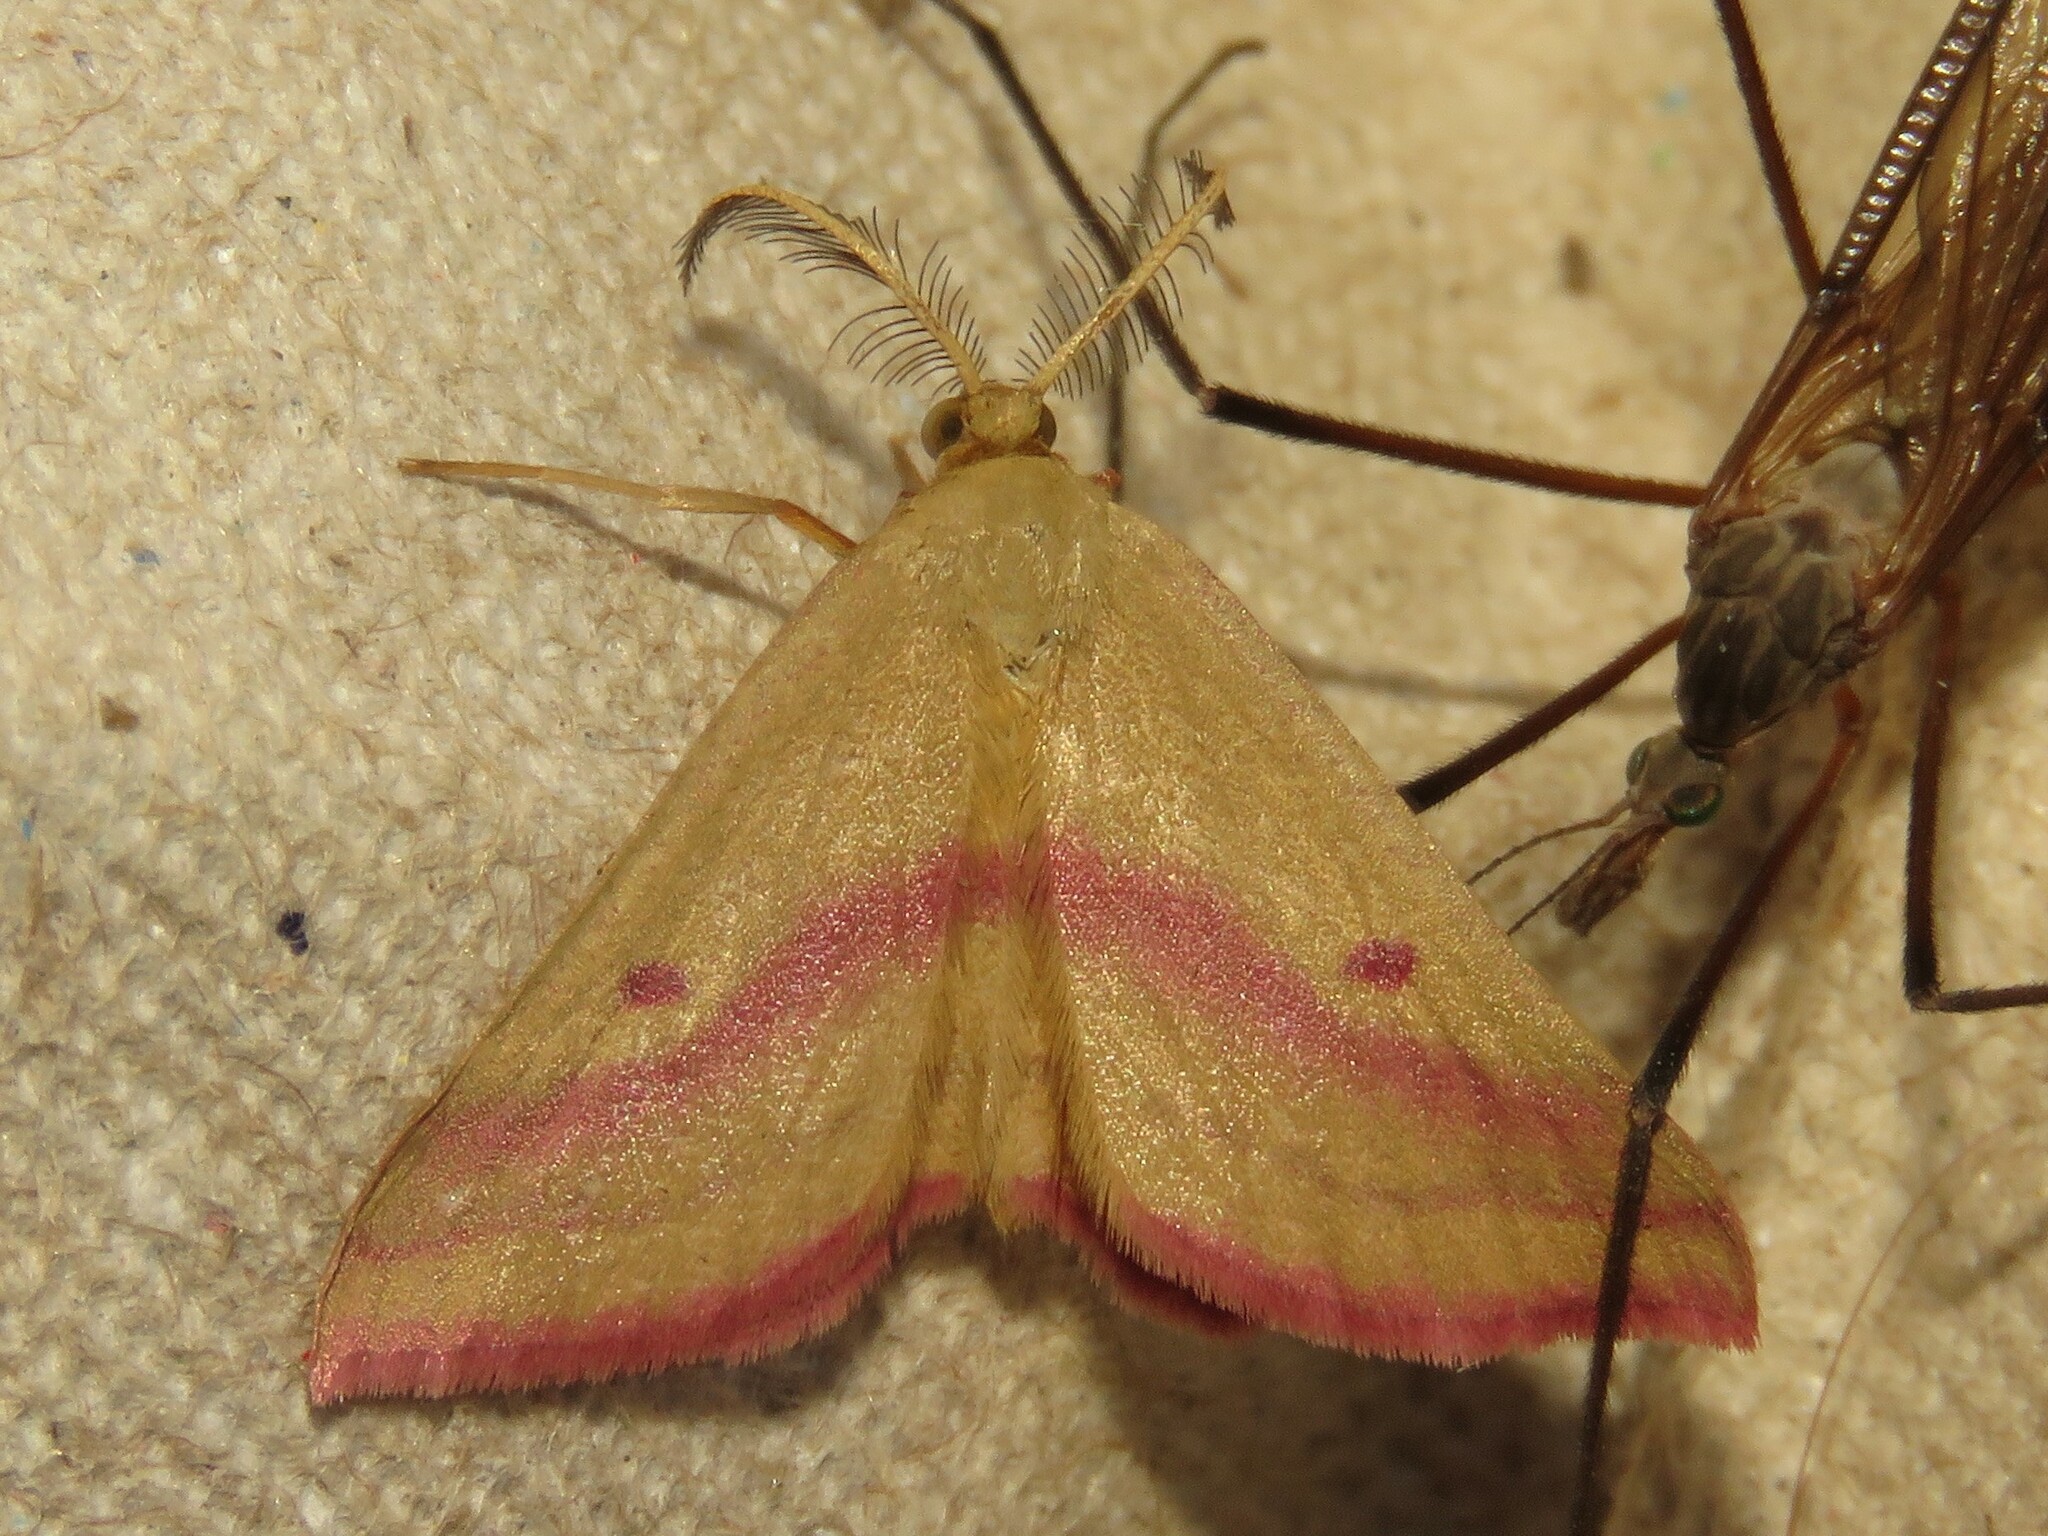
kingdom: Animalia
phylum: Arthropoda
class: Insecta
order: Lepidoptera
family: Geometridae
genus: Haematopis
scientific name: Haematopis grataria
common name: Chickweed geometer
